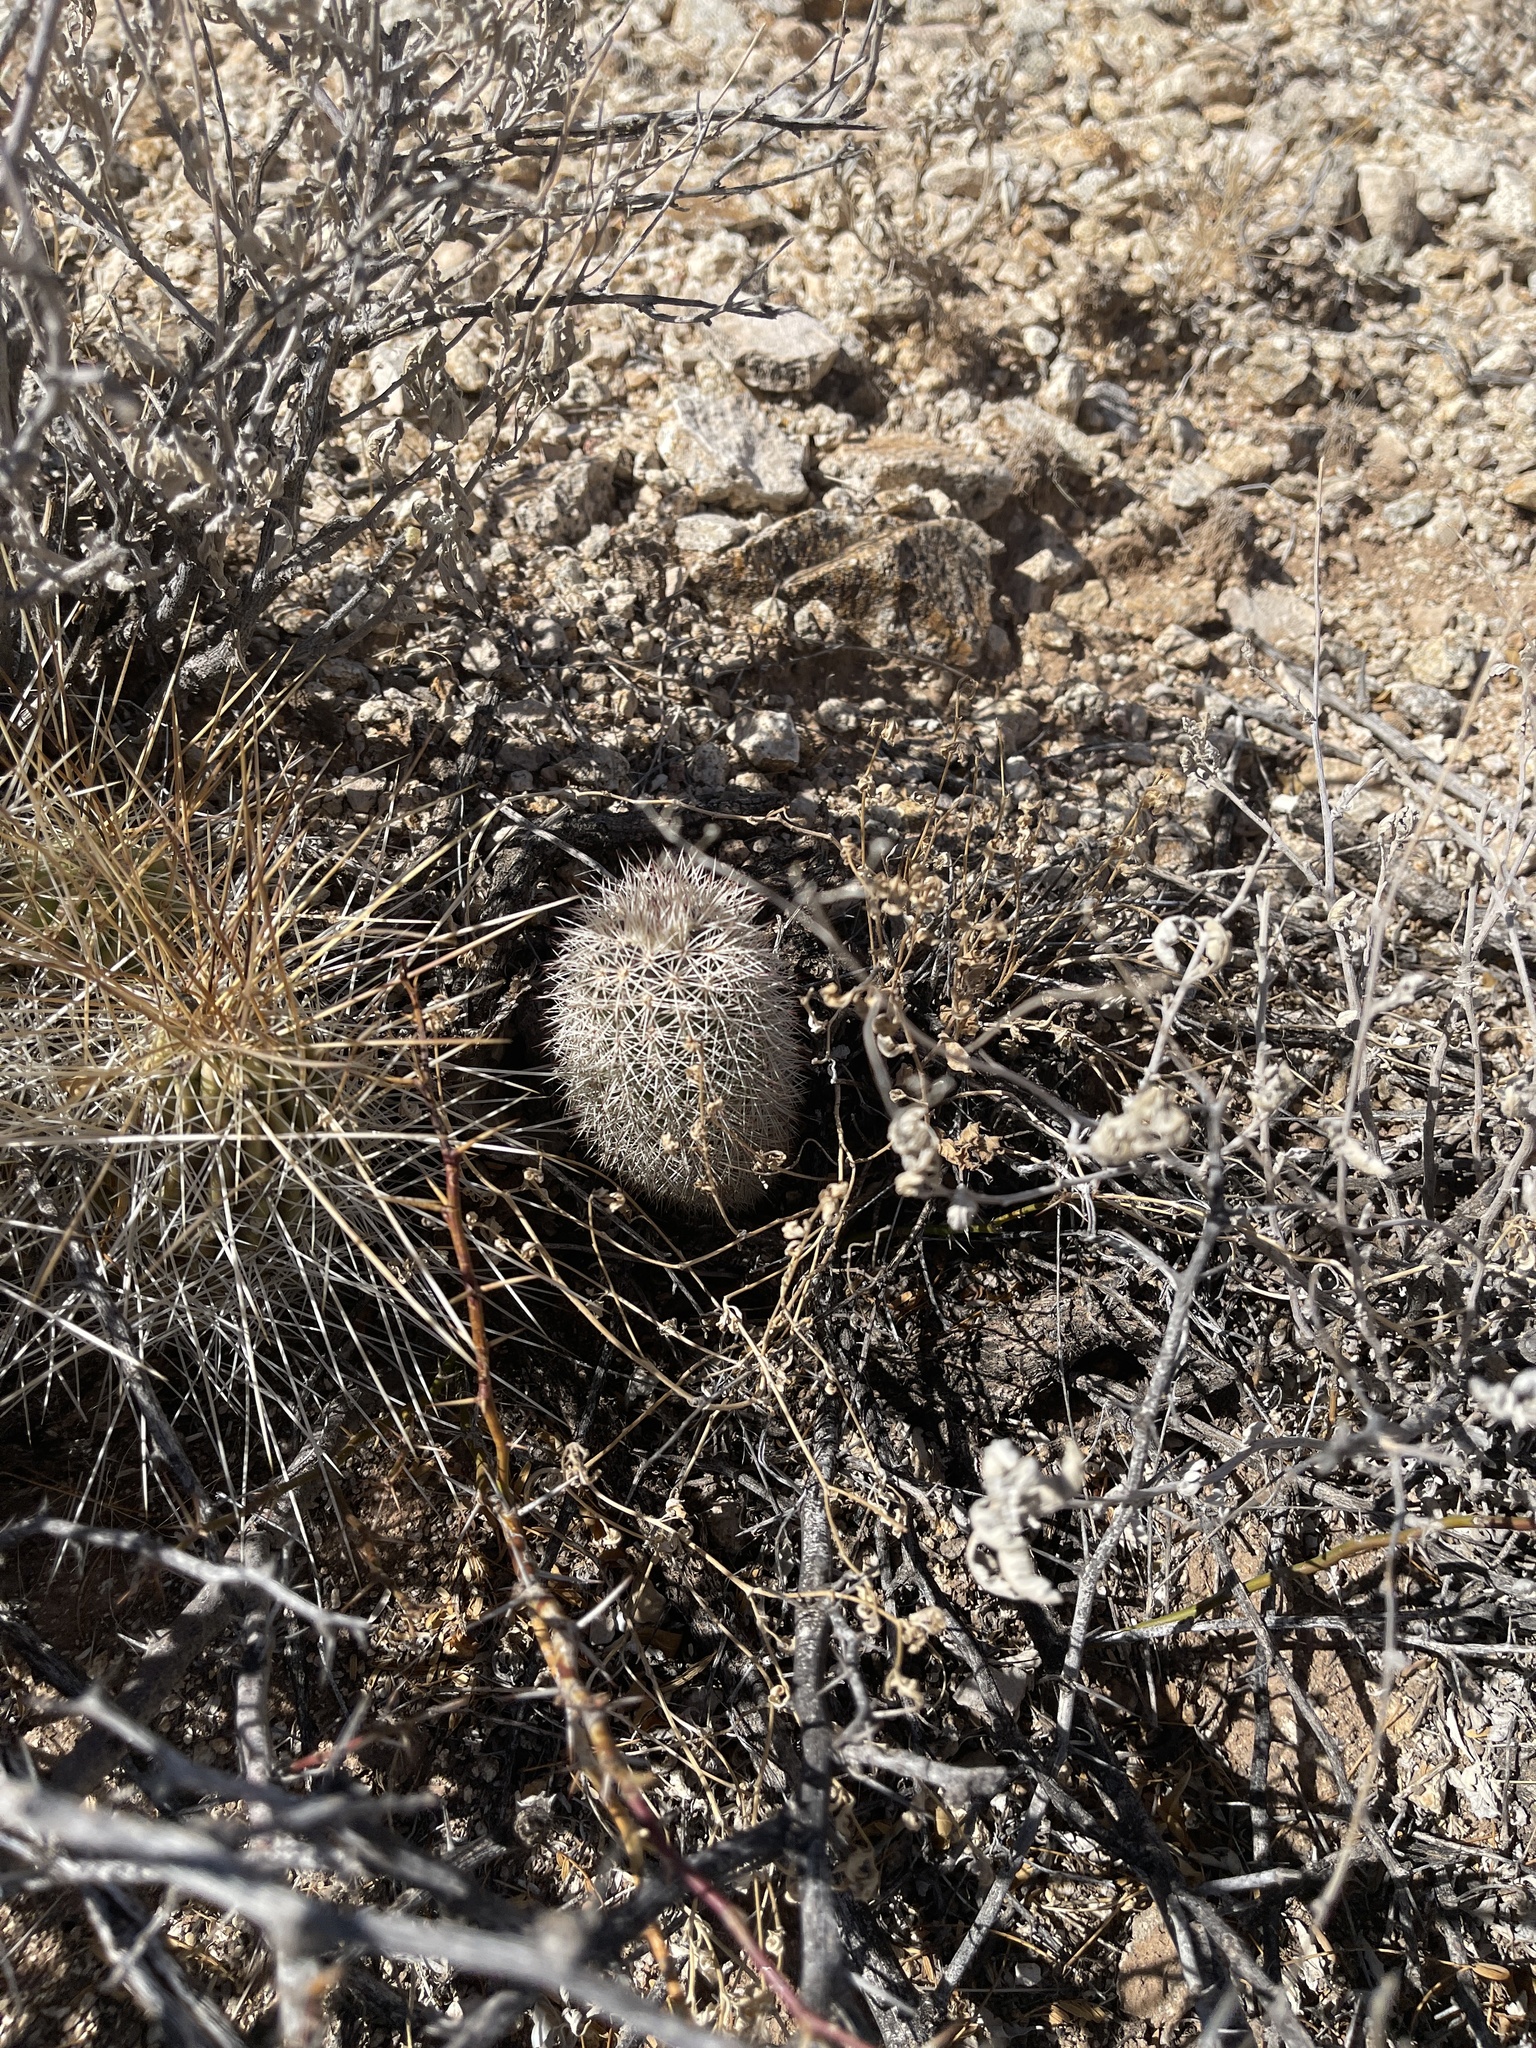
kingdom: Plantae
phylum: Tracheophyta
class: Magnoliopsida
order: Caryophyllales
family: Cactaceae
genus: Echinocereus
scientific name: Echinocereus dasyacanthus
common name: Spiny hedgehog cactus
